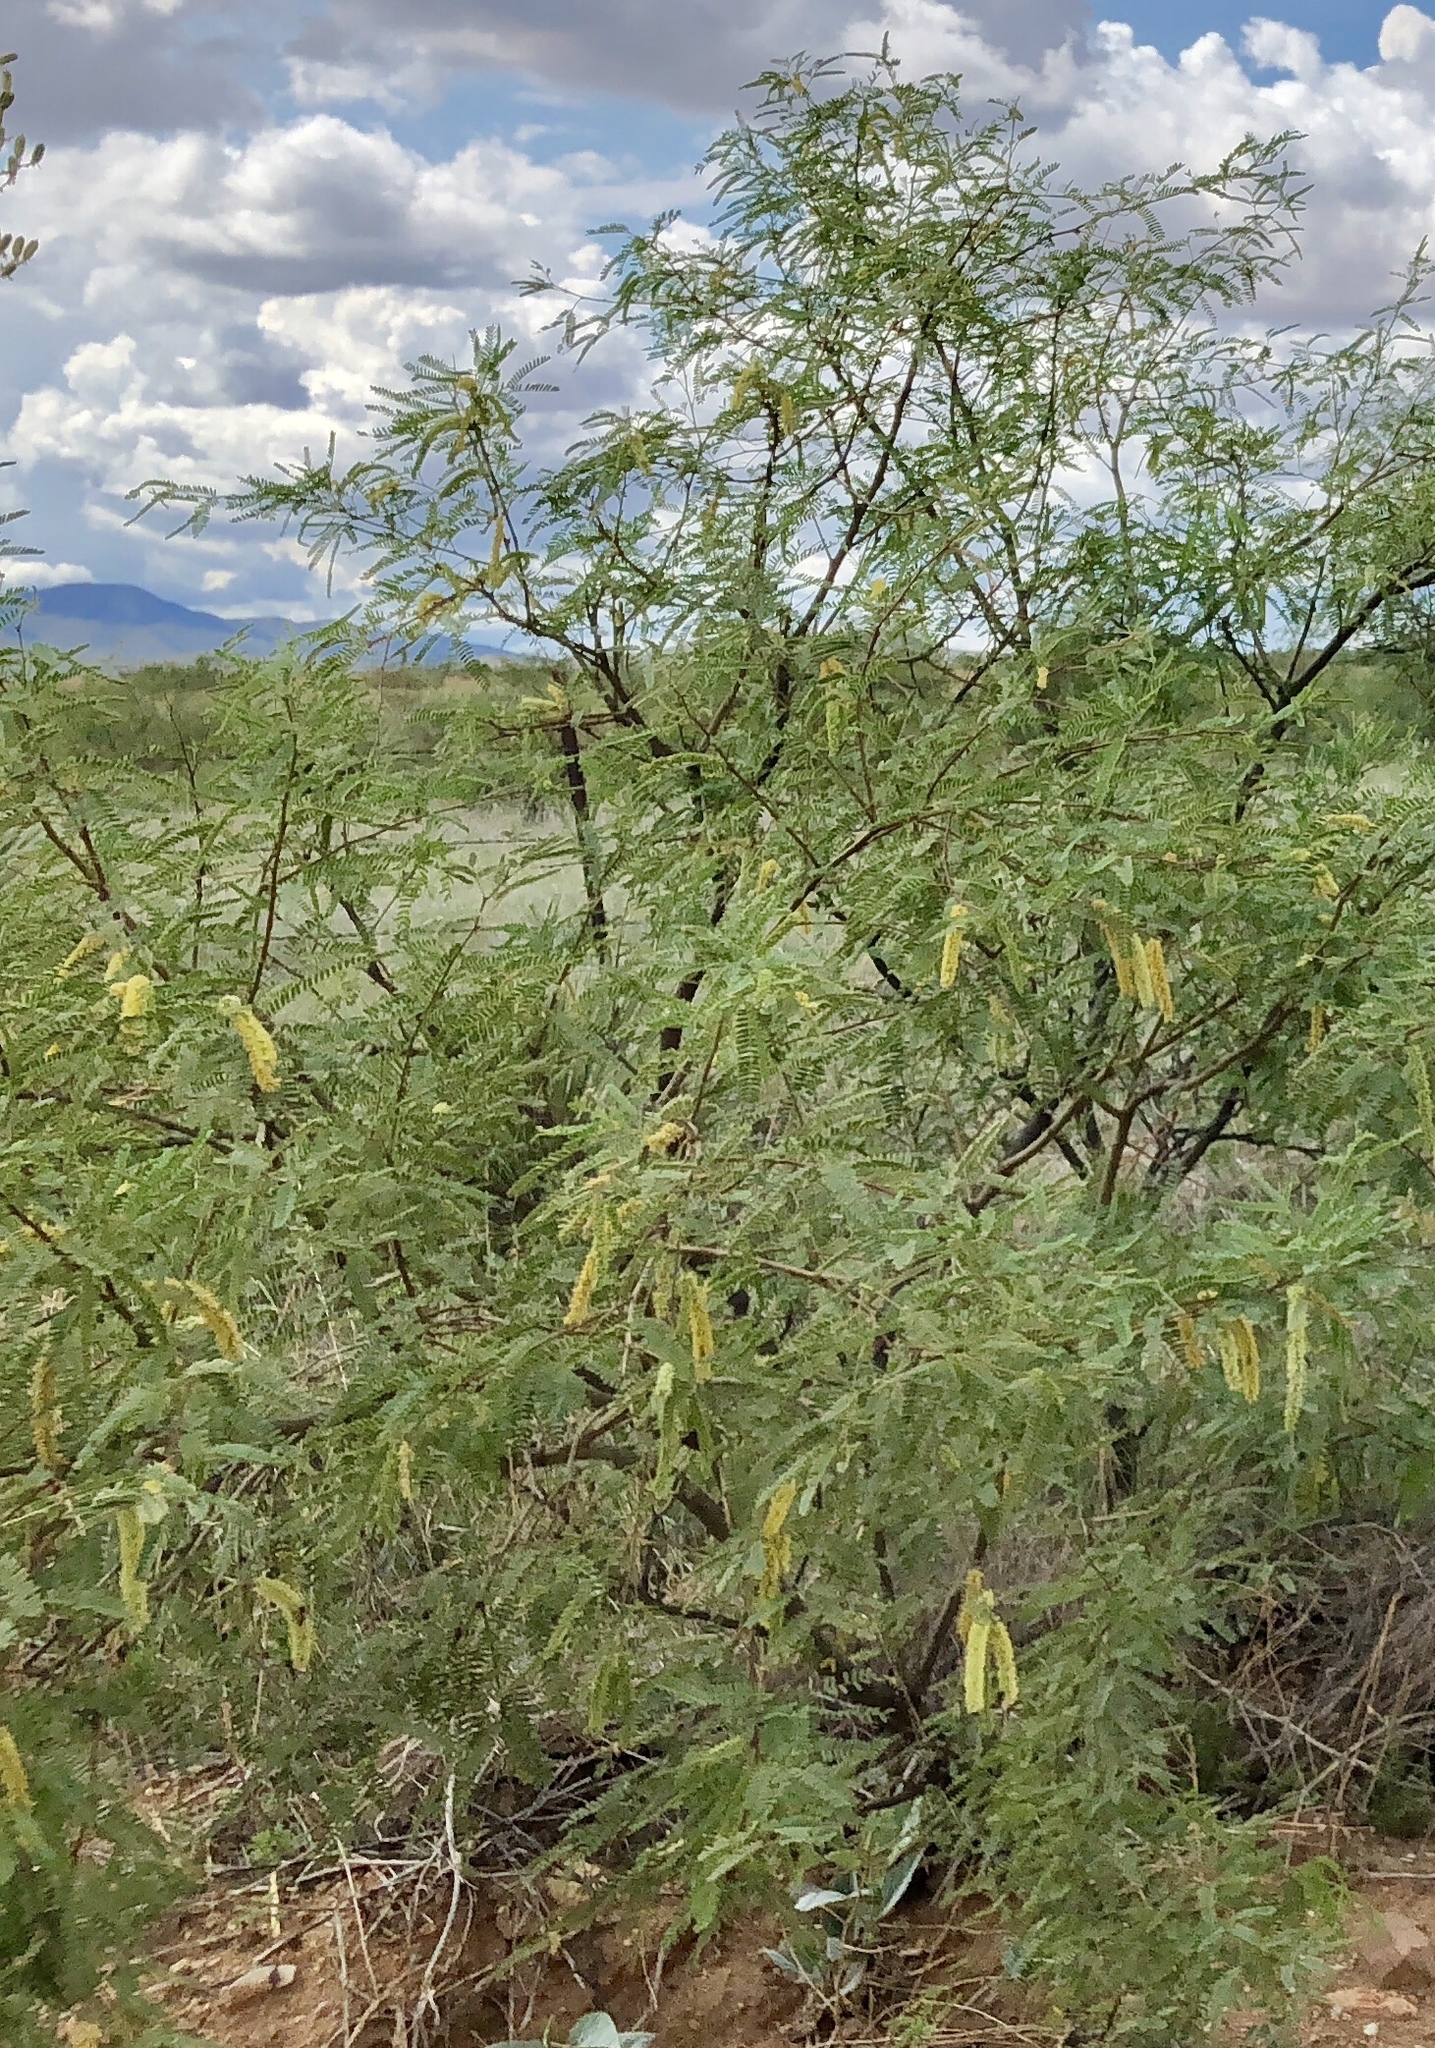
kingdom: Plantae
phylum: Tracheophyta
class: Magnoliopsida
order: Fabales
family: Fabaceae
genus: Prosopis
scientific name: Prosopis velutina
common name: Velvet mesquite
